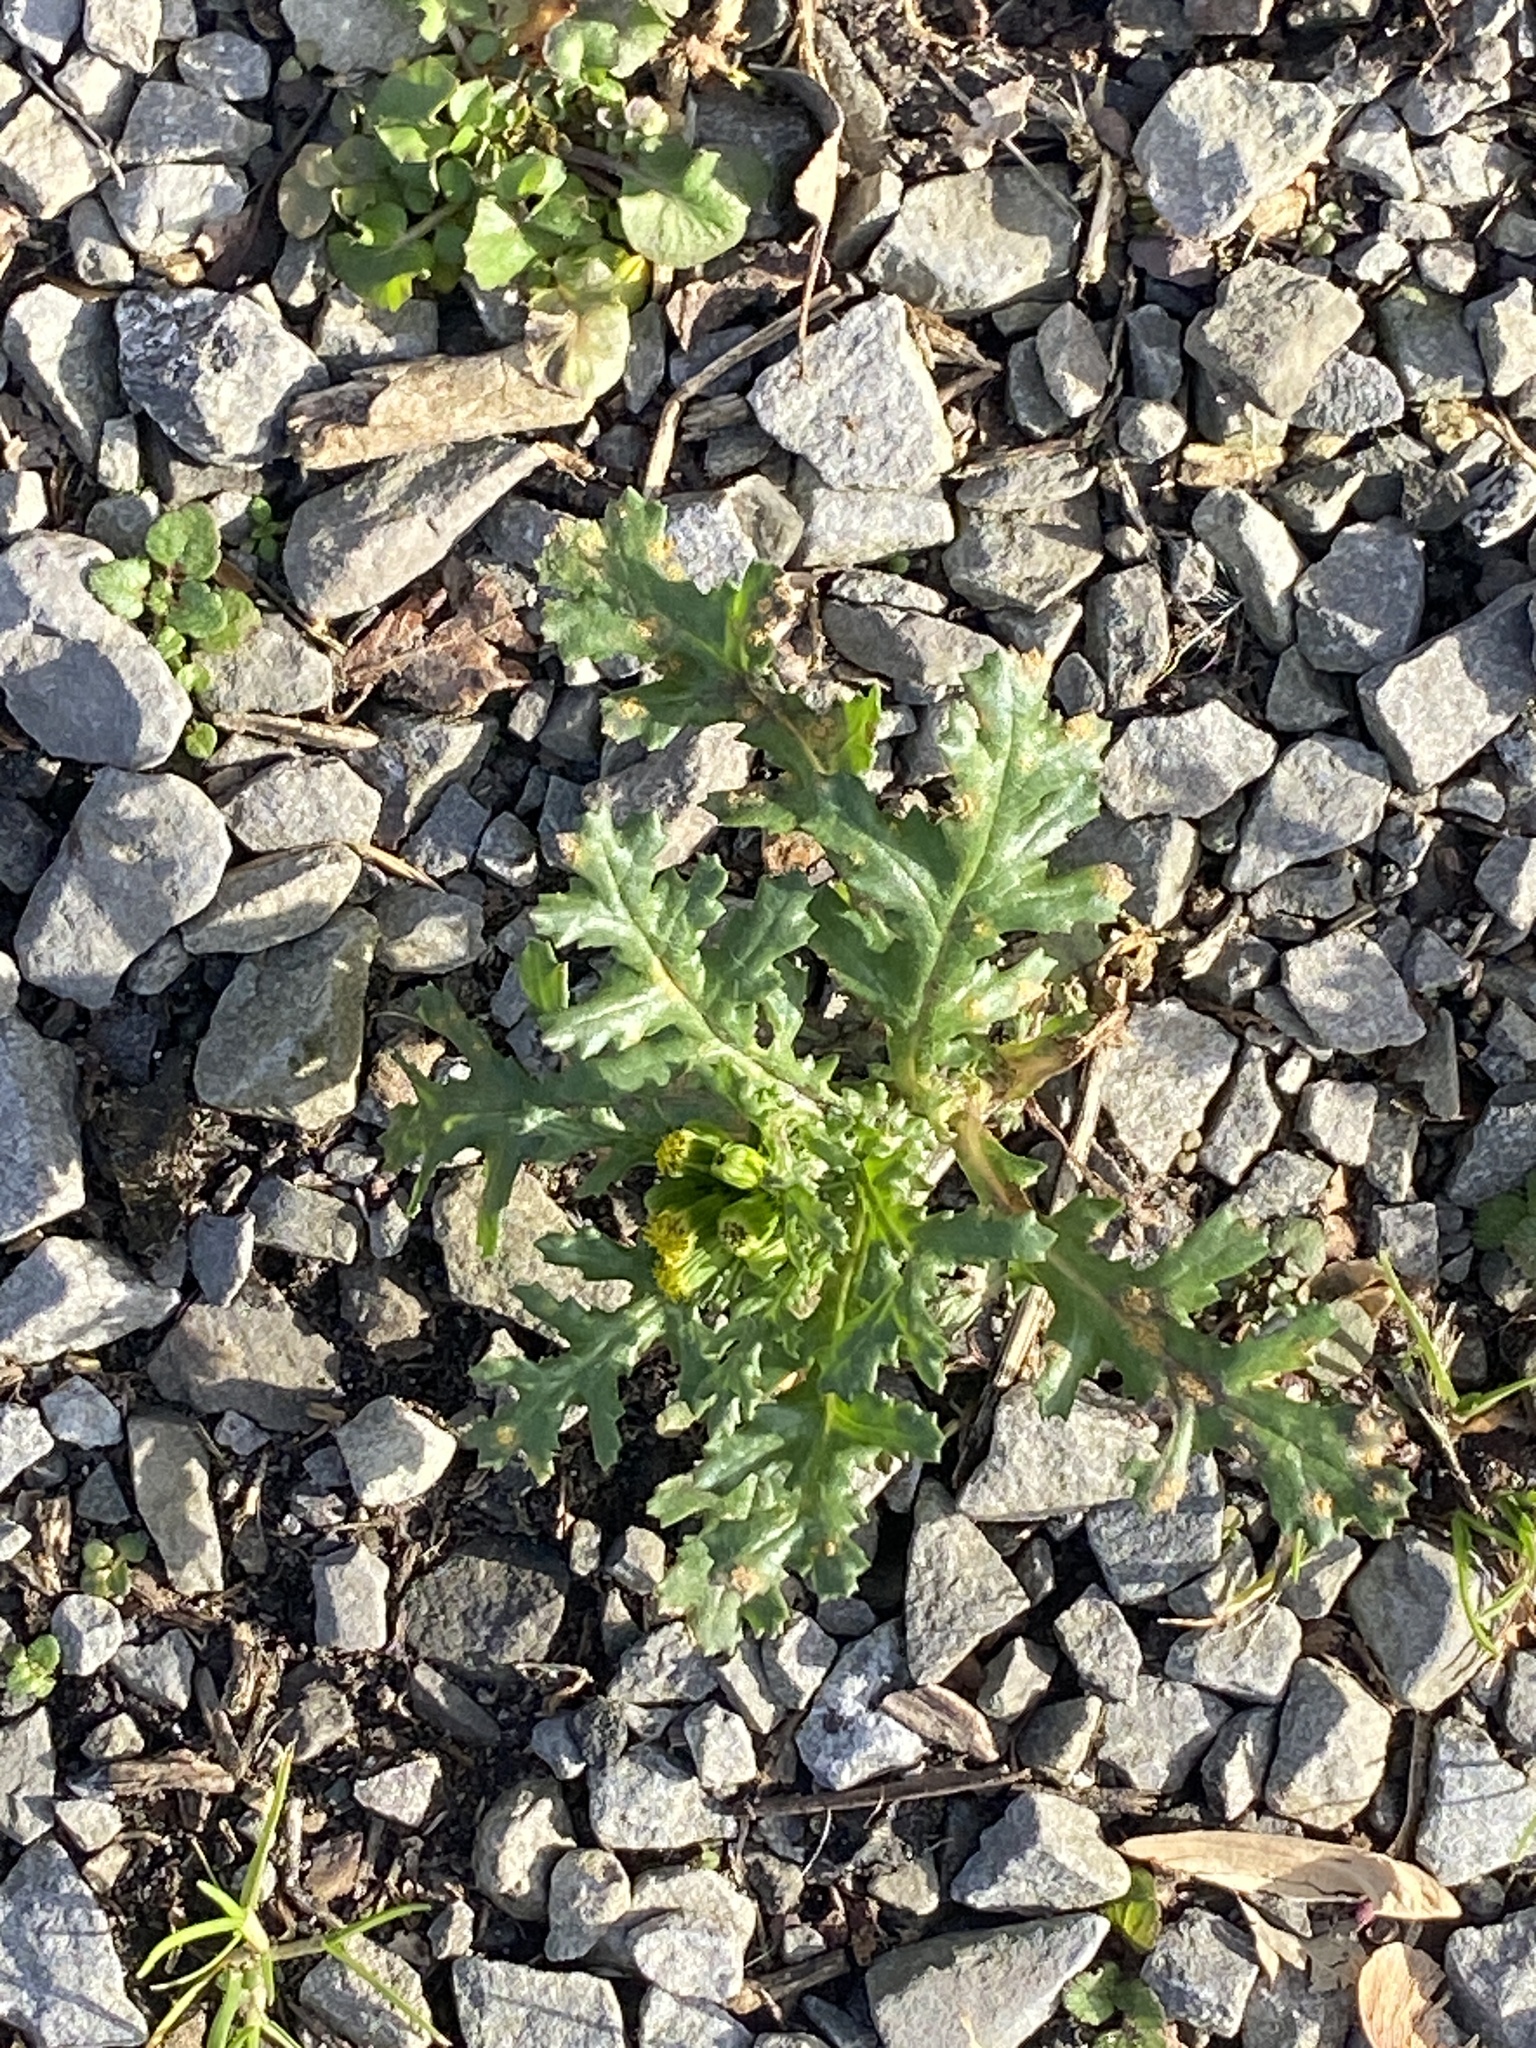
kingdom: Plantae
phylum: Tracheophyta
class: Magnoliopsida
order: Asterales
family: Asteraceae
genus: Senecio
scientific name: Senecio vulgaris
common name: Old-man-in-the-spring
